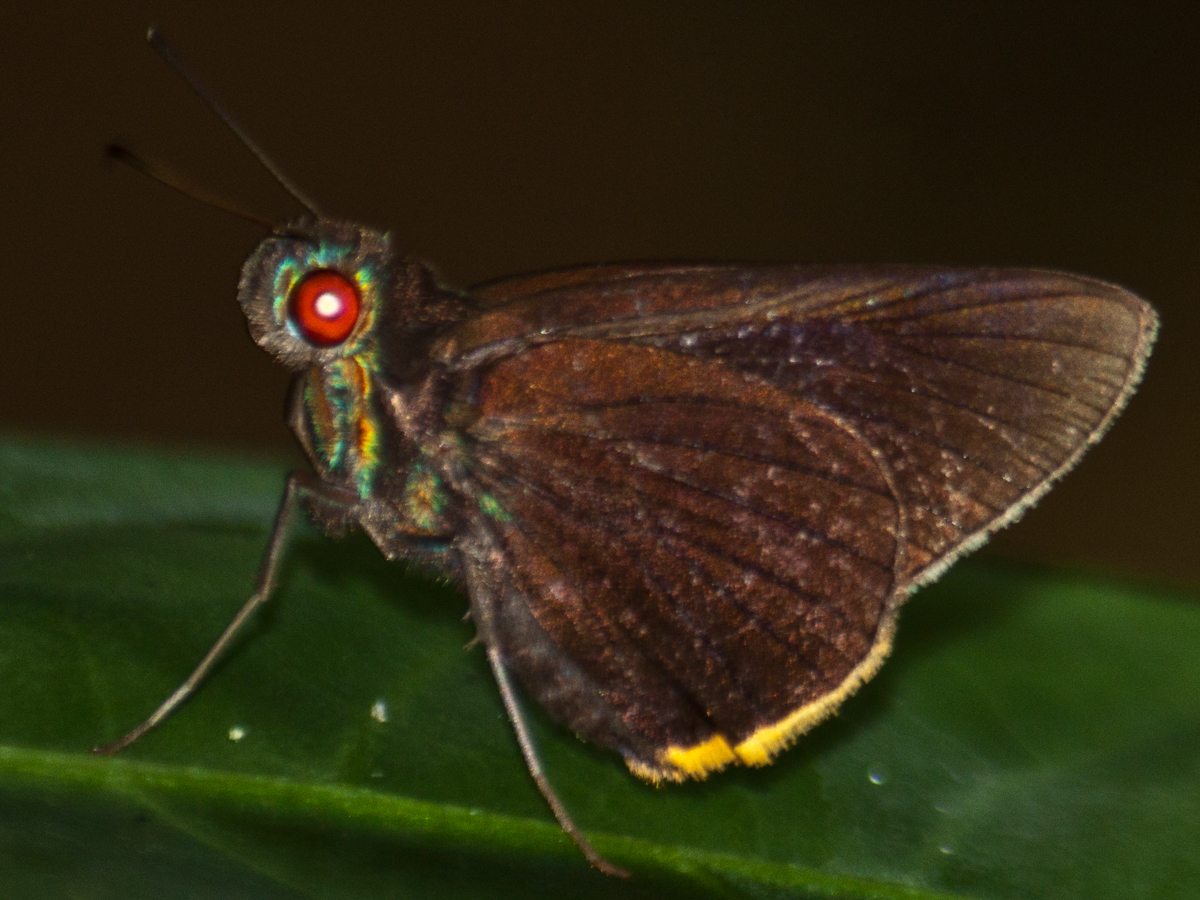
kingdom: Animalia
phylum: Arthropoda
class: Insecta
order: Lepidoptera
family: Hesperiidae
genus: Matapa
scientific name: Matapa sasivarna
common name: Black-veined redeye
